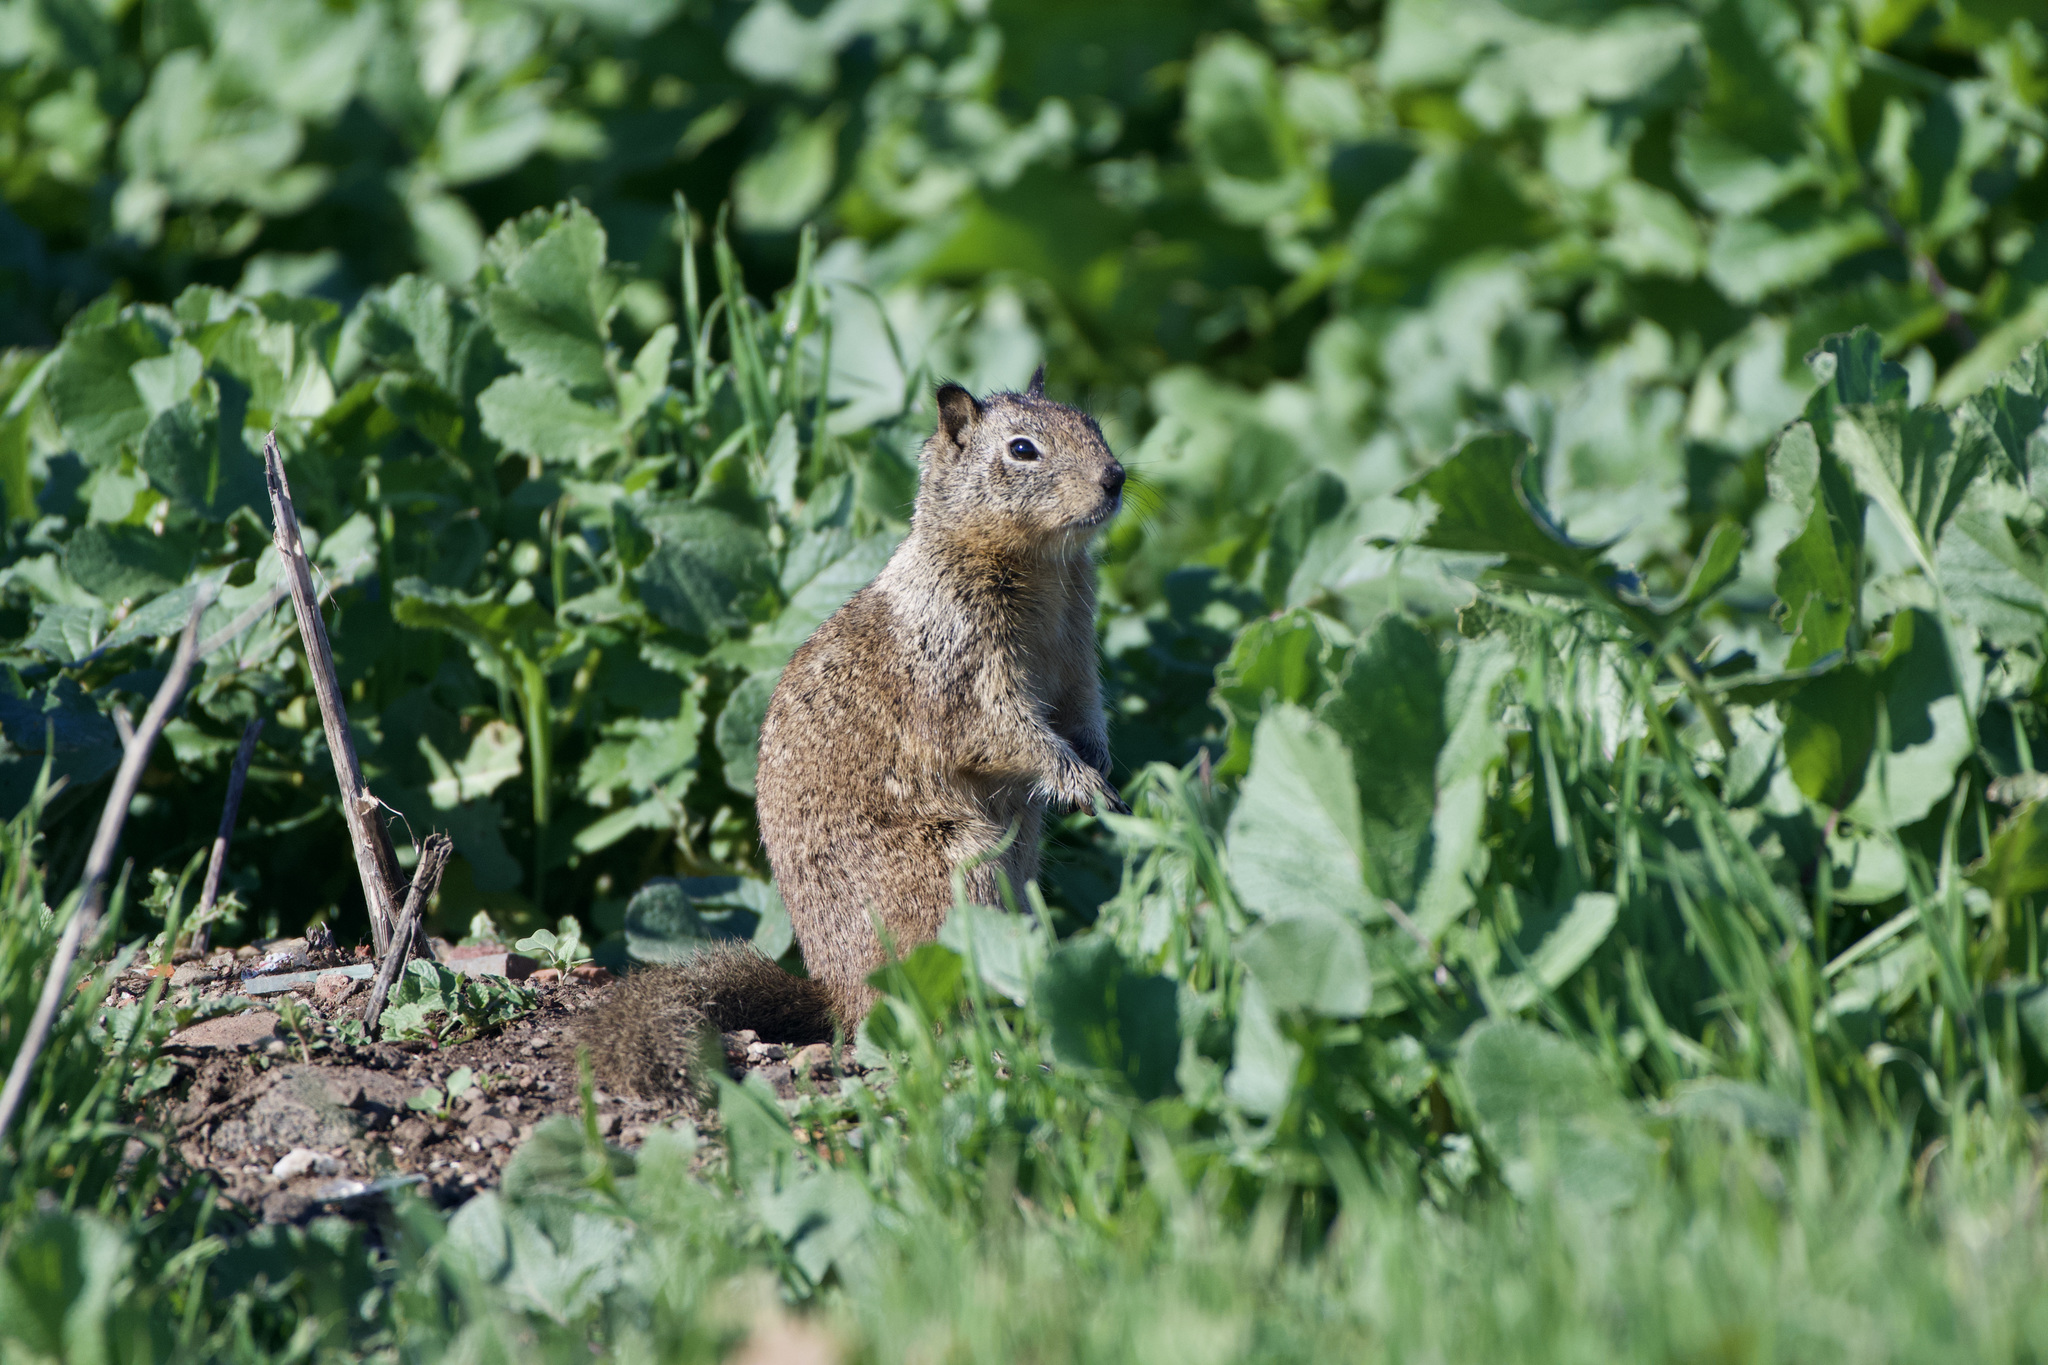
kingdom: Animalia
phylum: Chordata
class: Mammalia
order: Rodentia
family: Sciuridae
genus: Otospermophilus
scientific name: Otospermophilus beecheyi
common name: California ground squirrel
